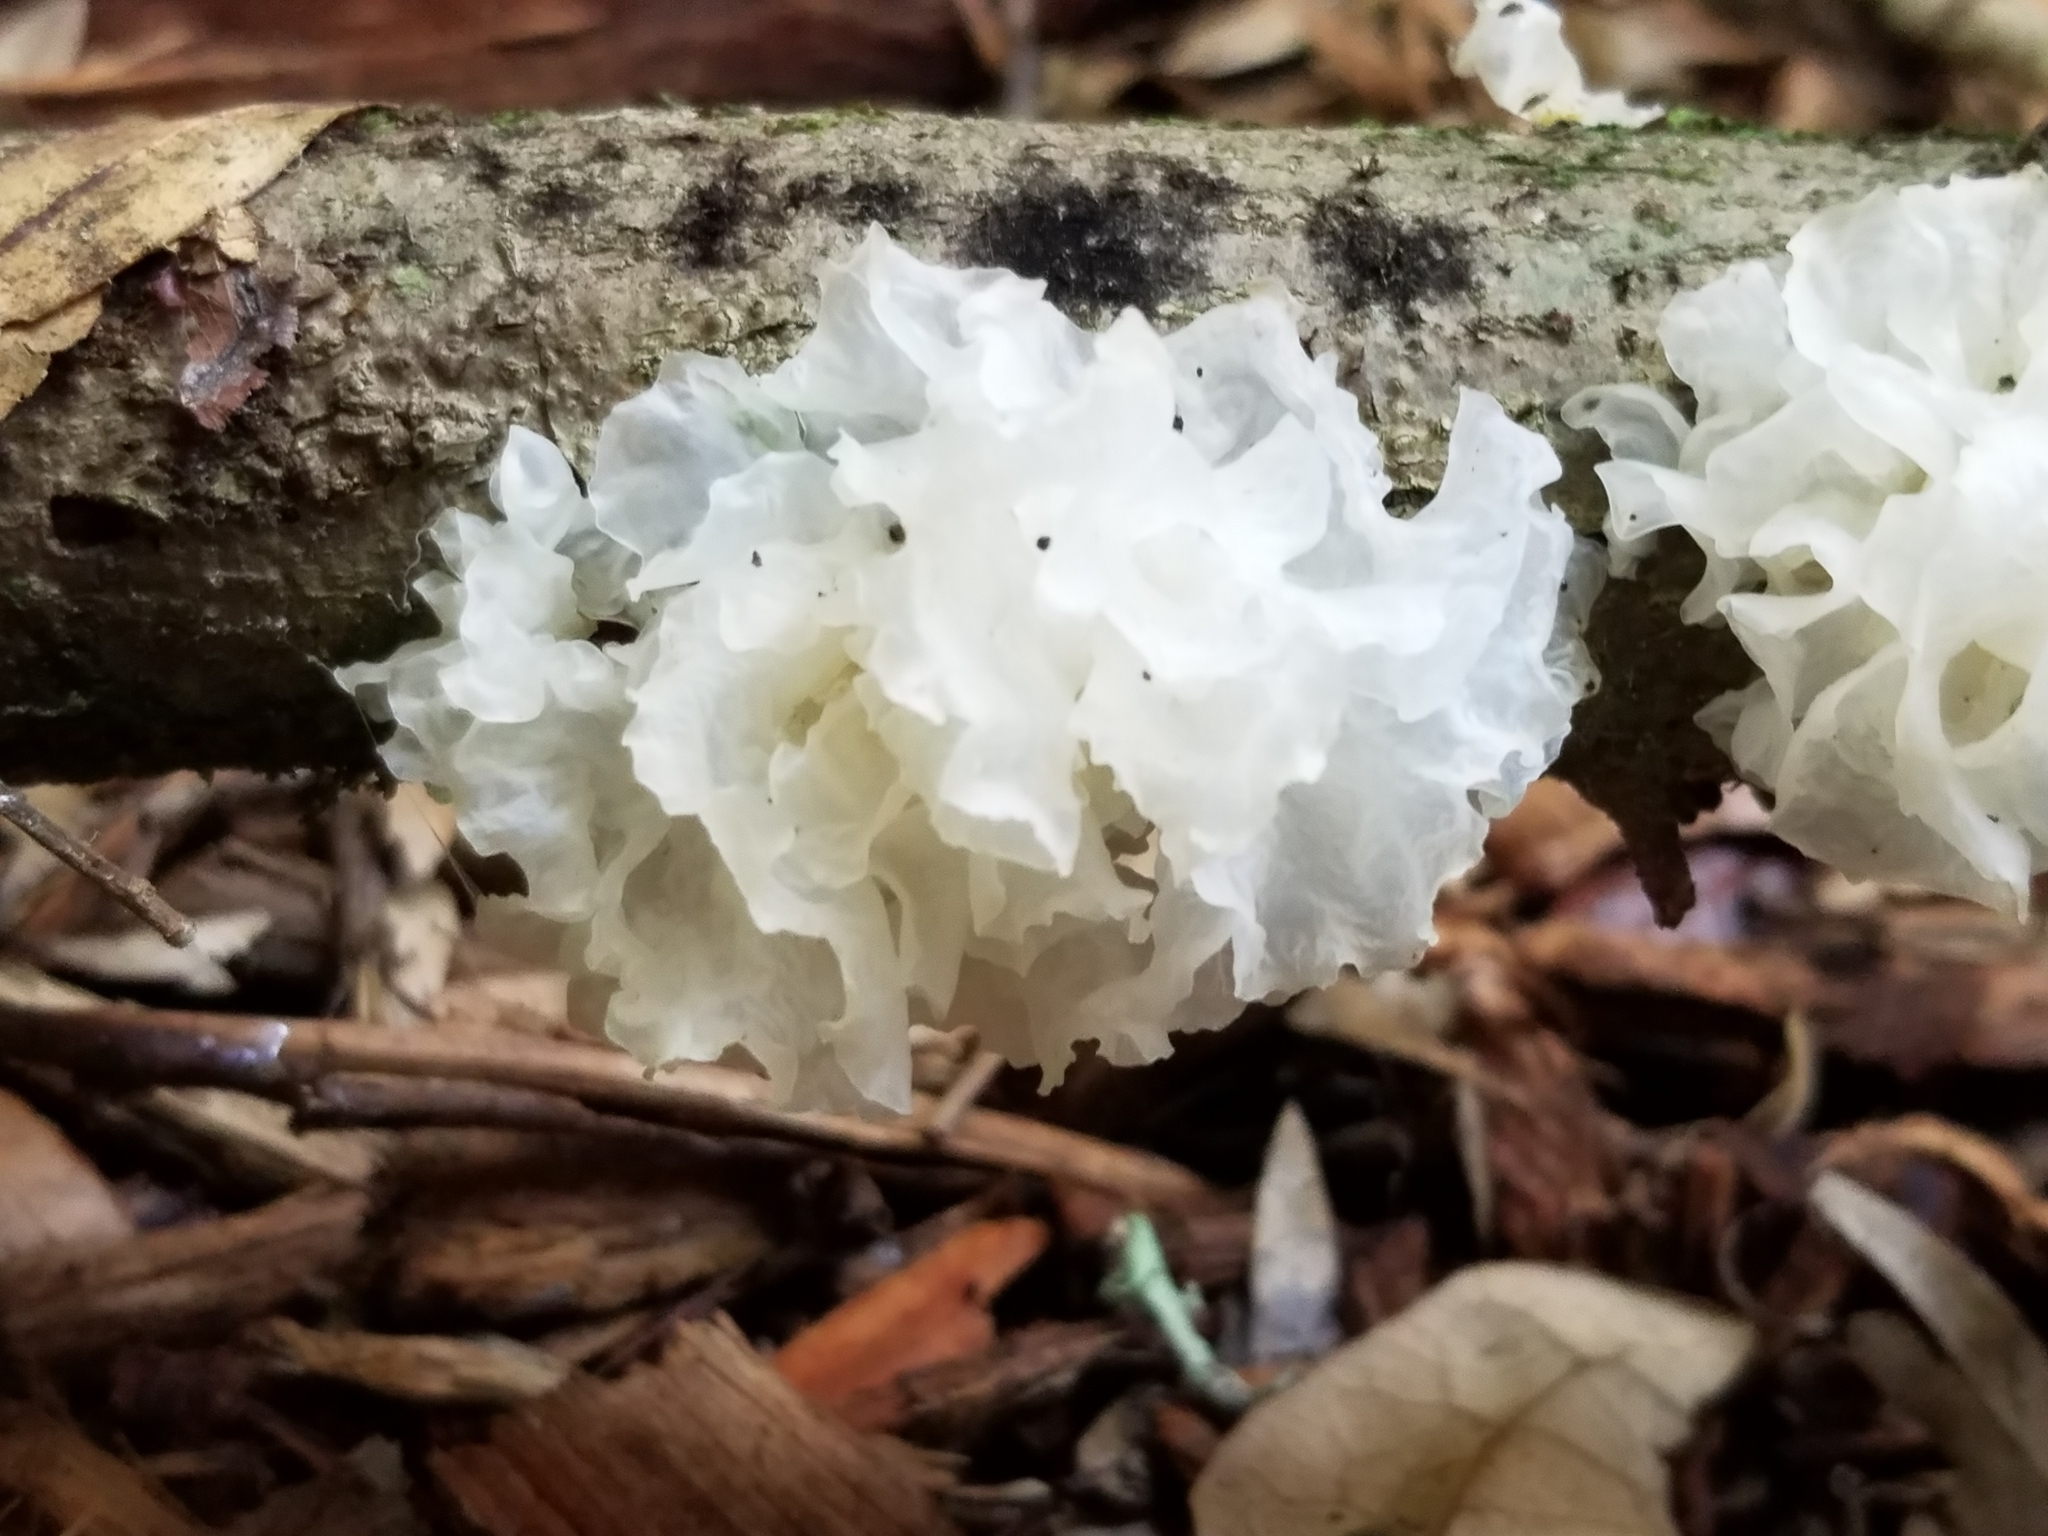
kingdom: Fungi
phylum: Basidiomycota
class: Tremellomycetes
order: Tremellales
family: Tremellaceae
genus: Tremella
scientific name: Tremella fuciformis
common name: Snow fungus
